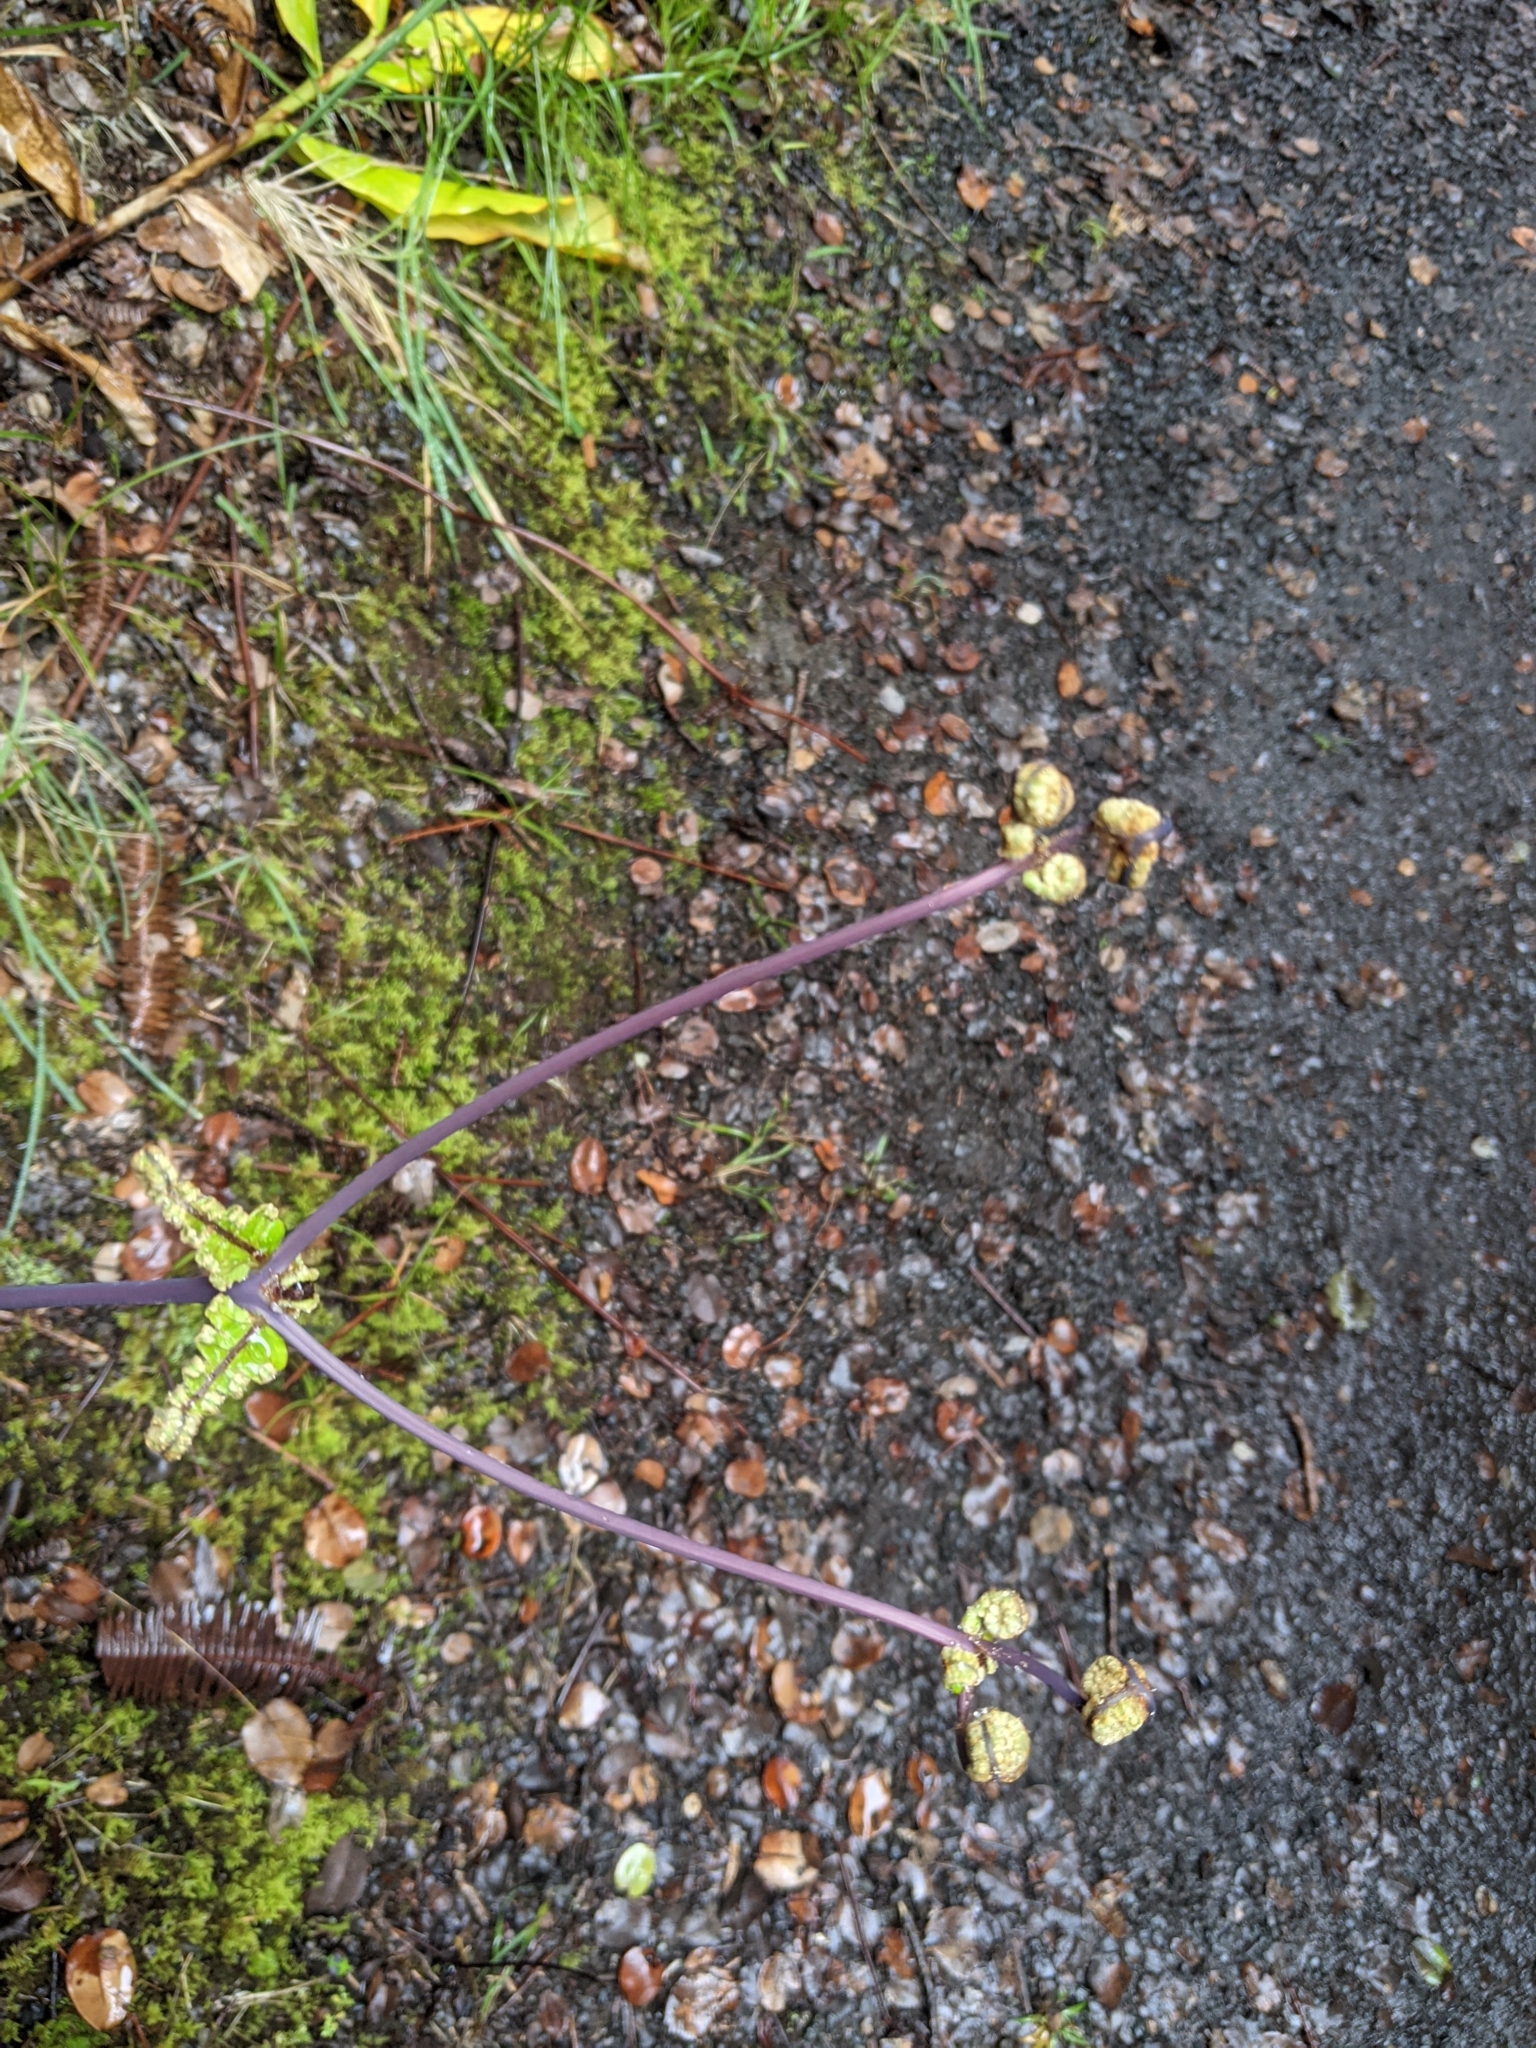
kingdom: Plantae
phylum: Tracheophyta
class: Polypodiopsida
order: Gleicheniales
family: Gleicheniaceae
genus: Dicranopteris
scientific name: Dicranopteris linearis
